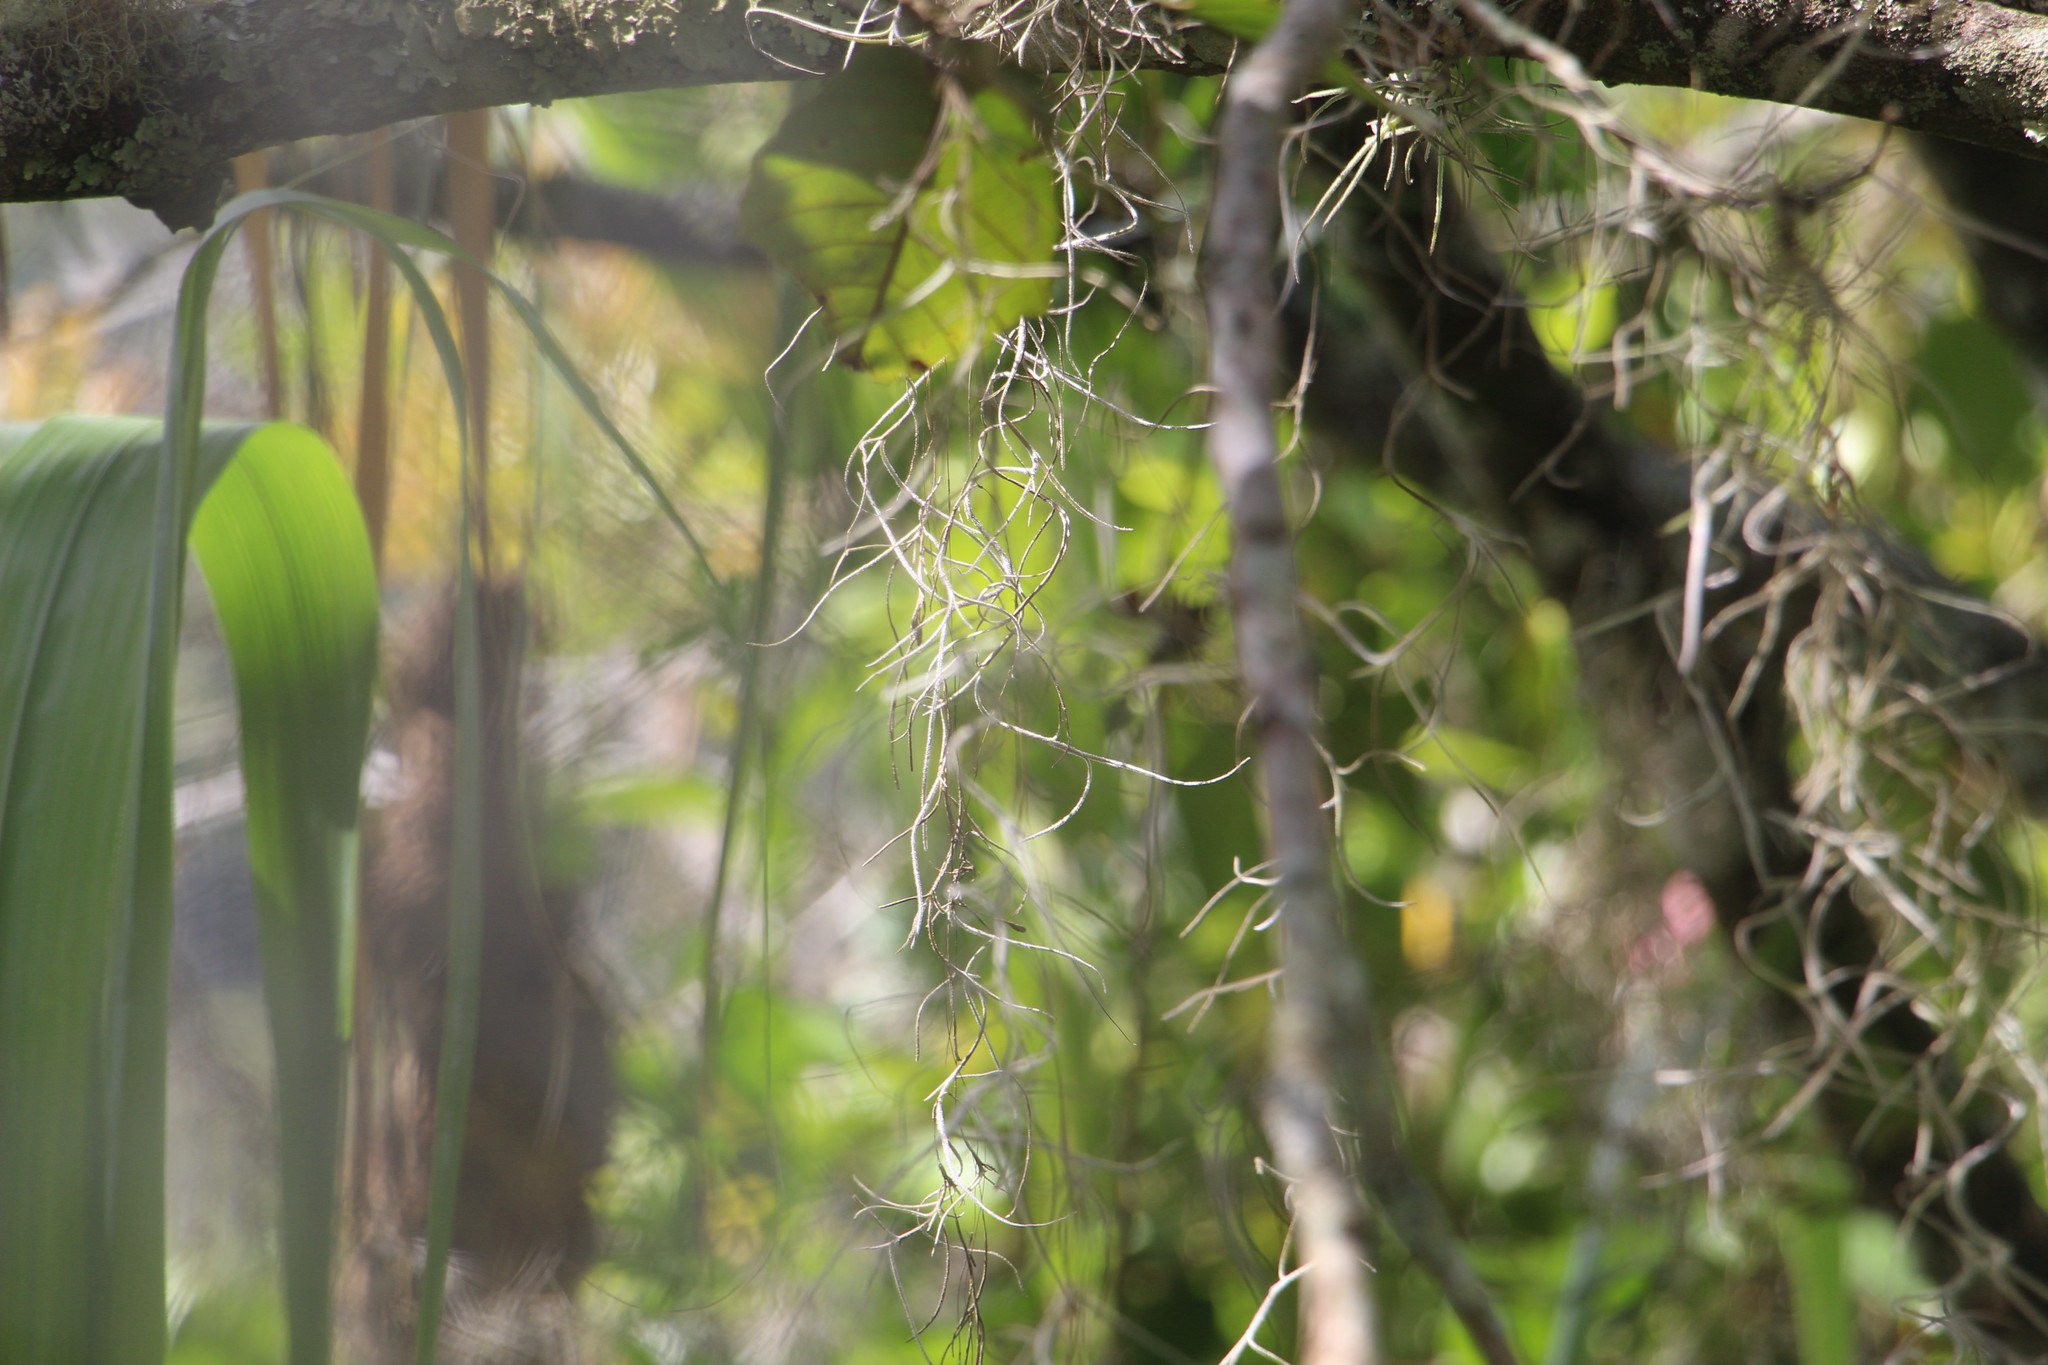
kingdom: Plantae
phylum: Tracheophyta
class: Liliopsida
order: Poales
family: Bromeliaceae
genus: Tillandsia
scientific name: Tillandsia usneoides
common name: Spanish moss
